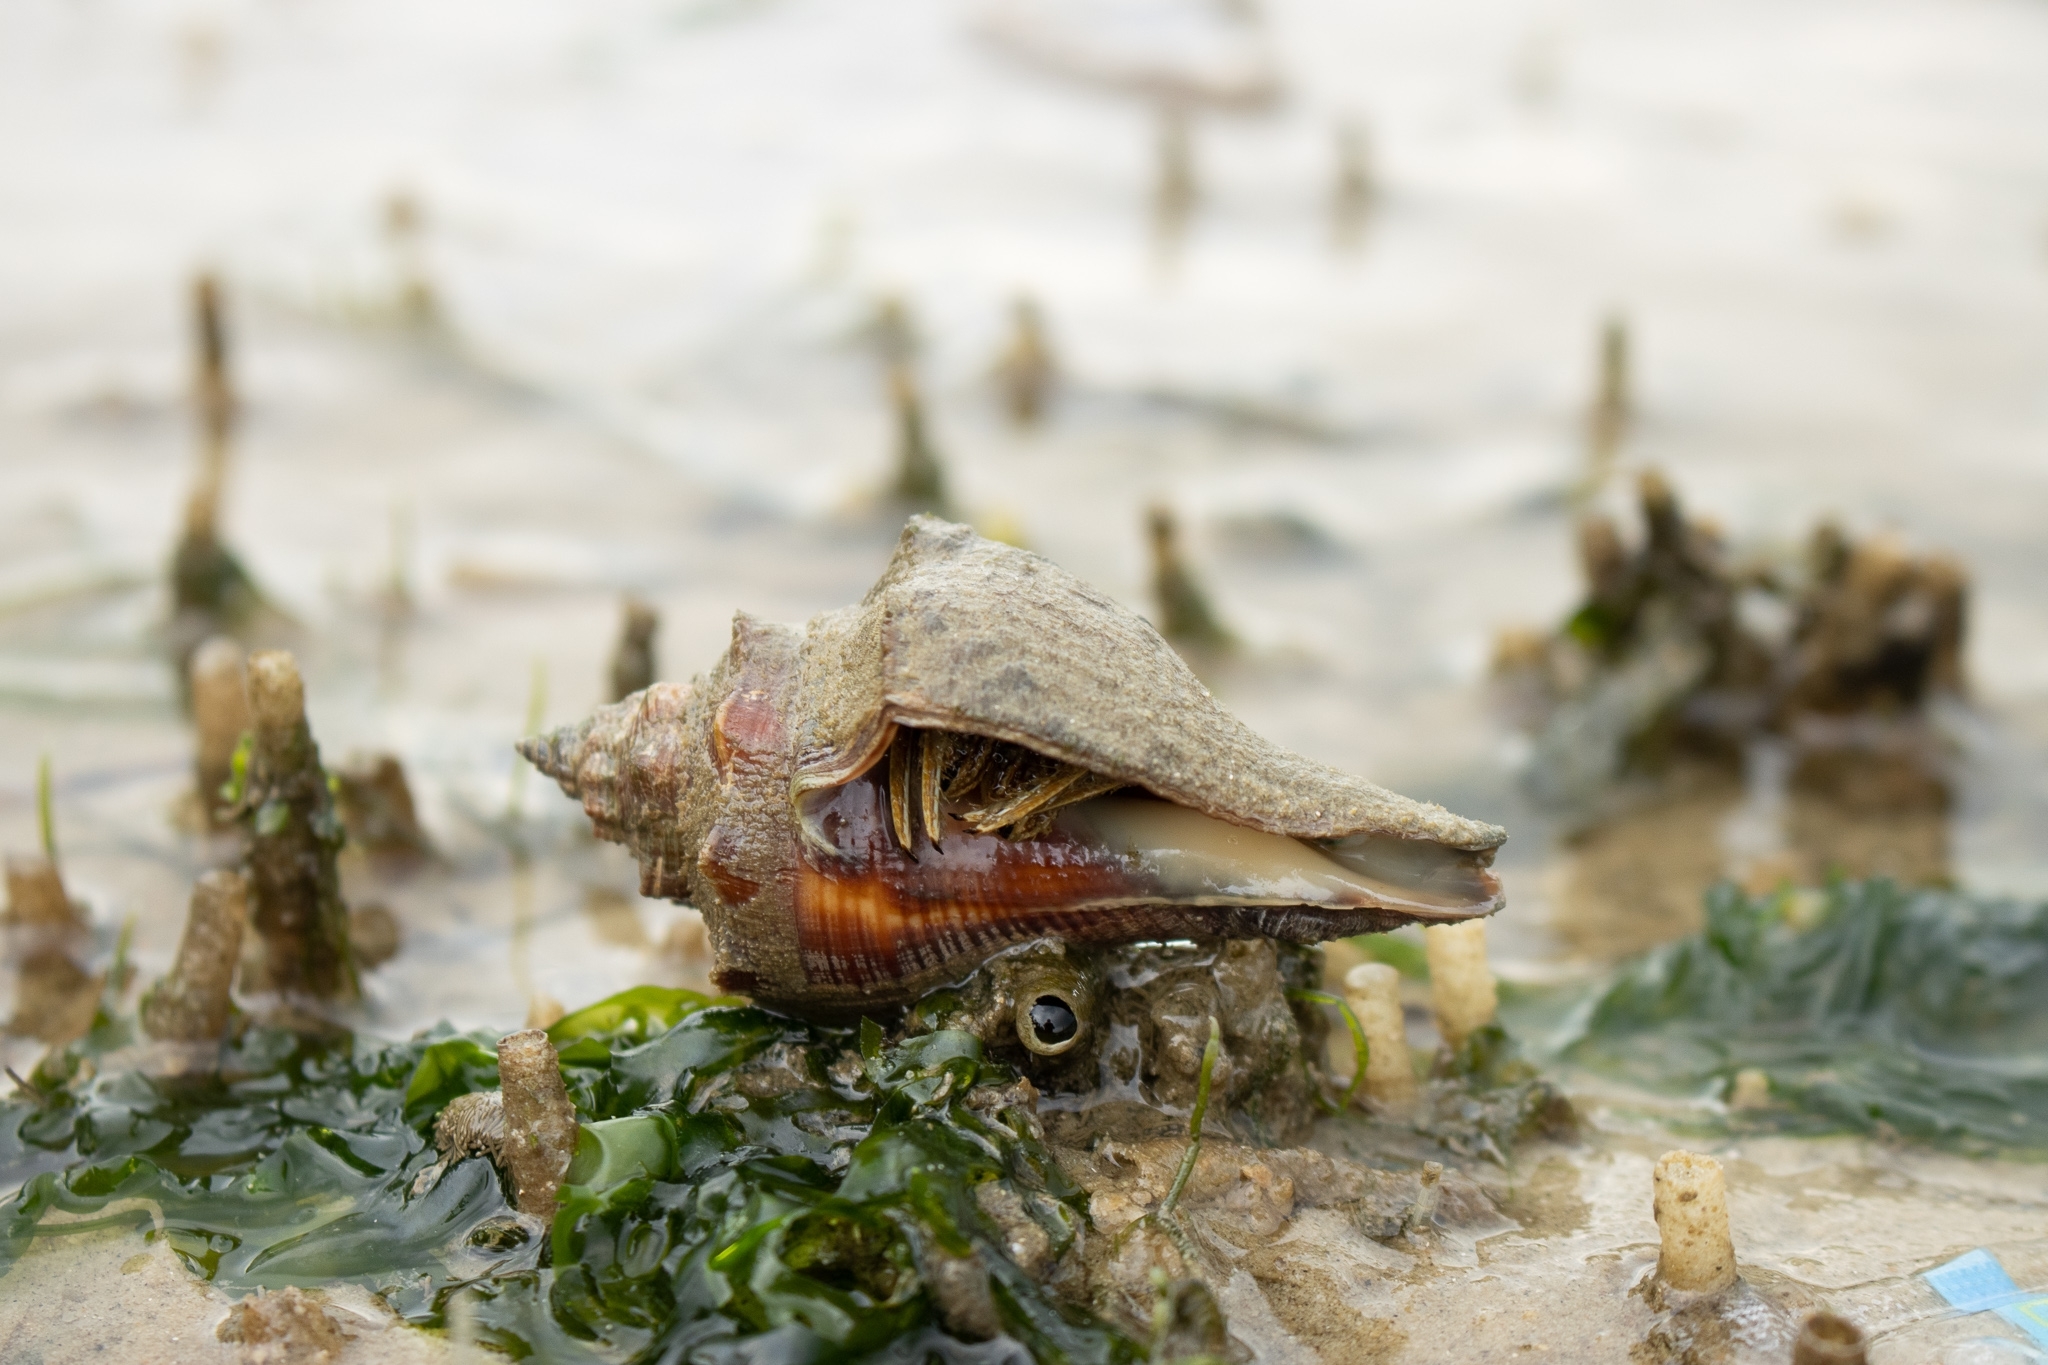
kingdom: Animalia
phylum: Arthropoda
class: Malacostraca
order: Decapoda
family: Diogenidae
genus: Clibanarius
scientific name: Clibanarius infraspinatus
